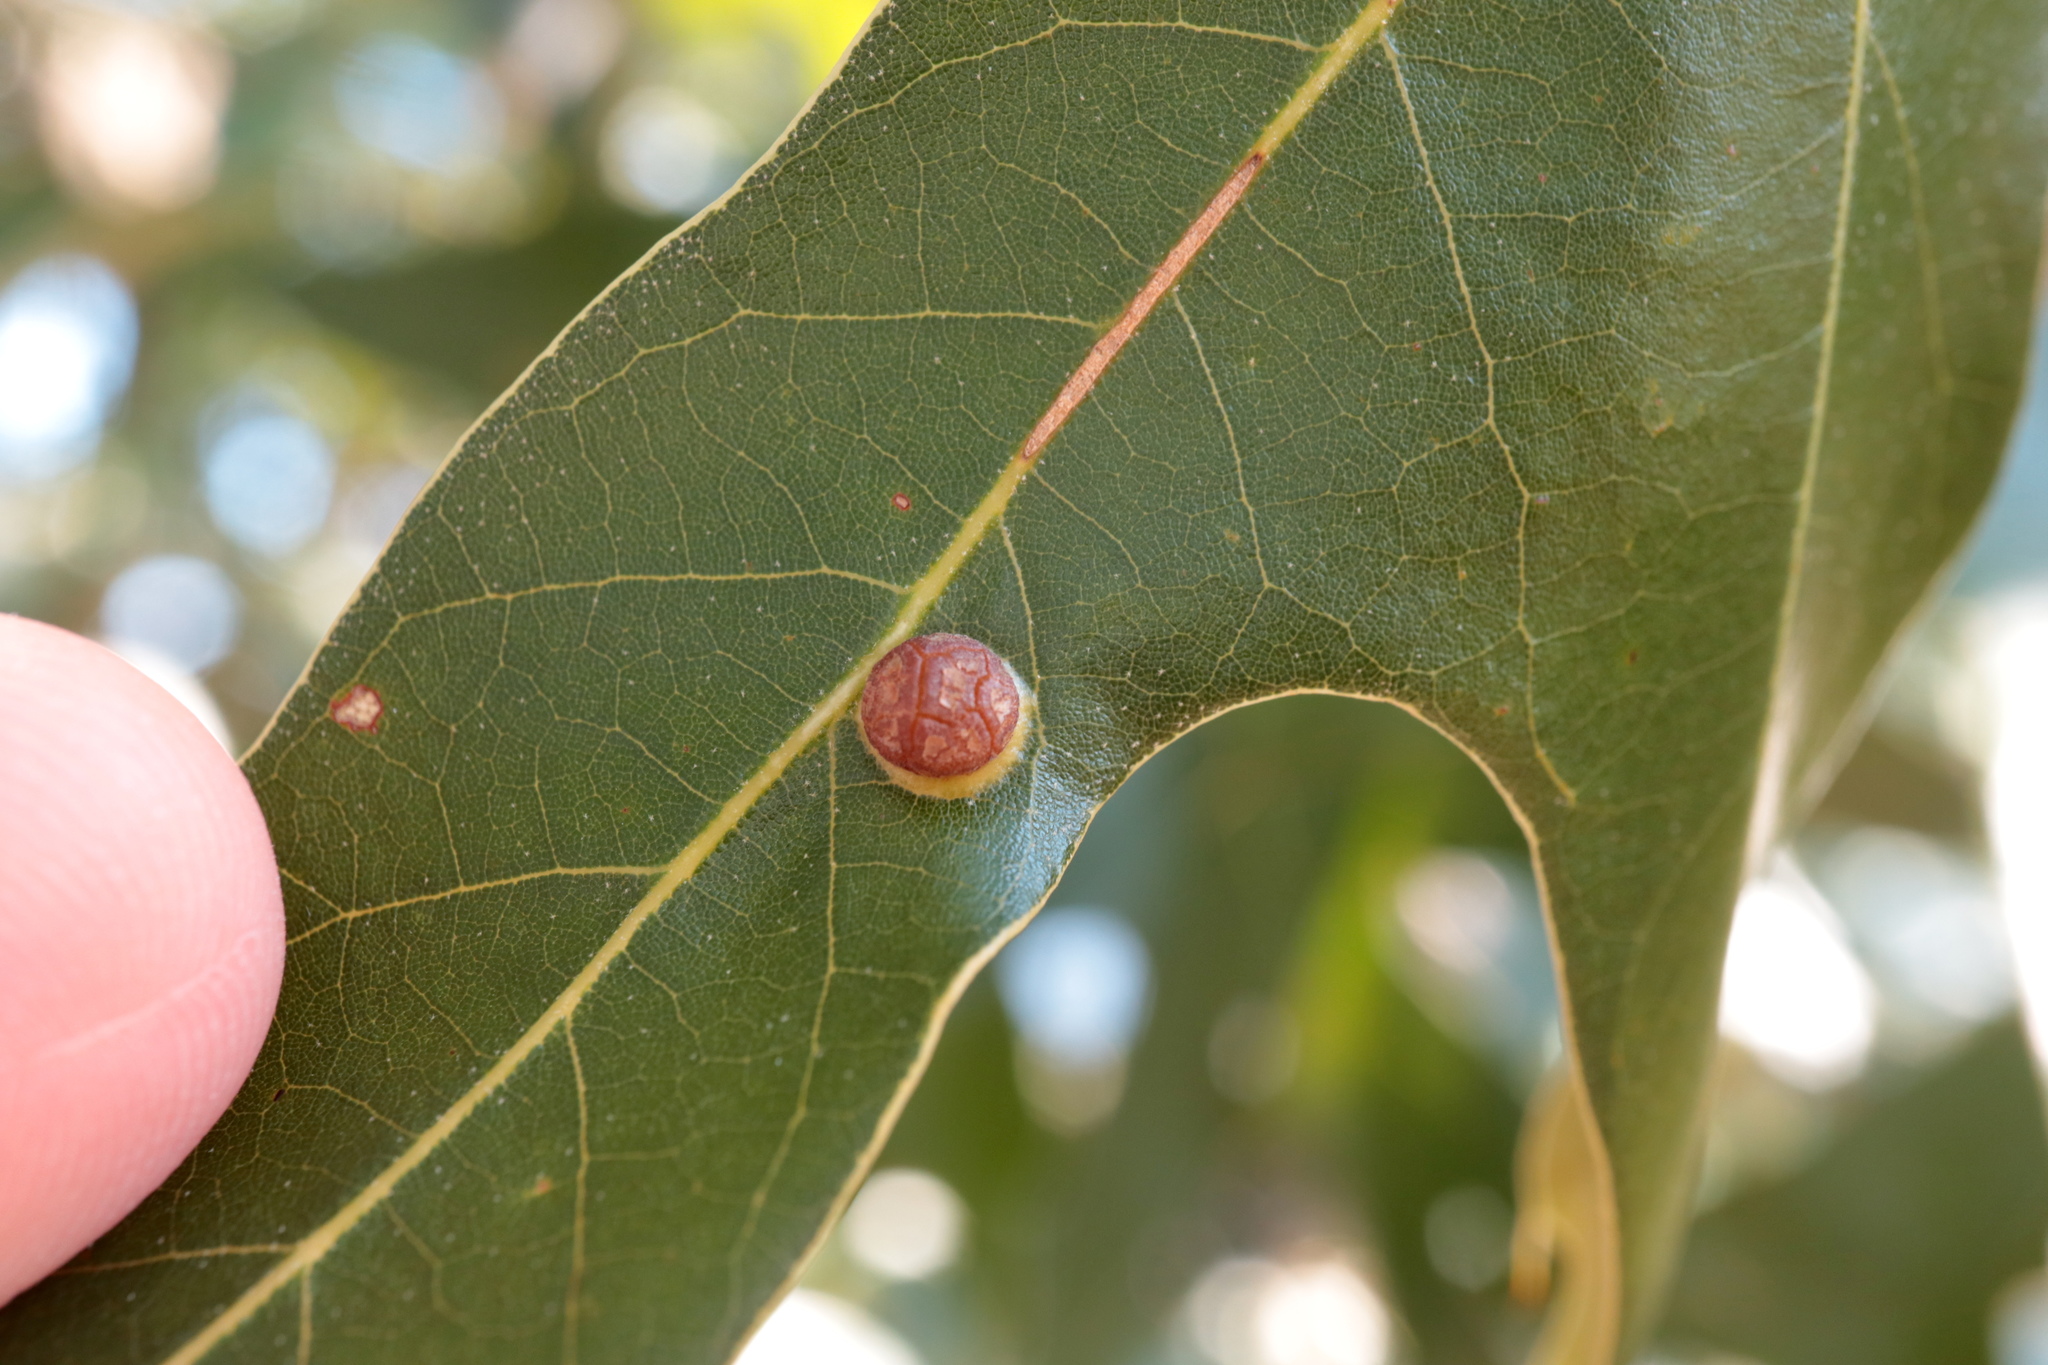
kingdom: Animalia
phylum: Arthropoda
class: Insecta
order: Diptera
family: Cecidomyiidae
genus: Polystepha
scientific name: Polystepha symmetrica
